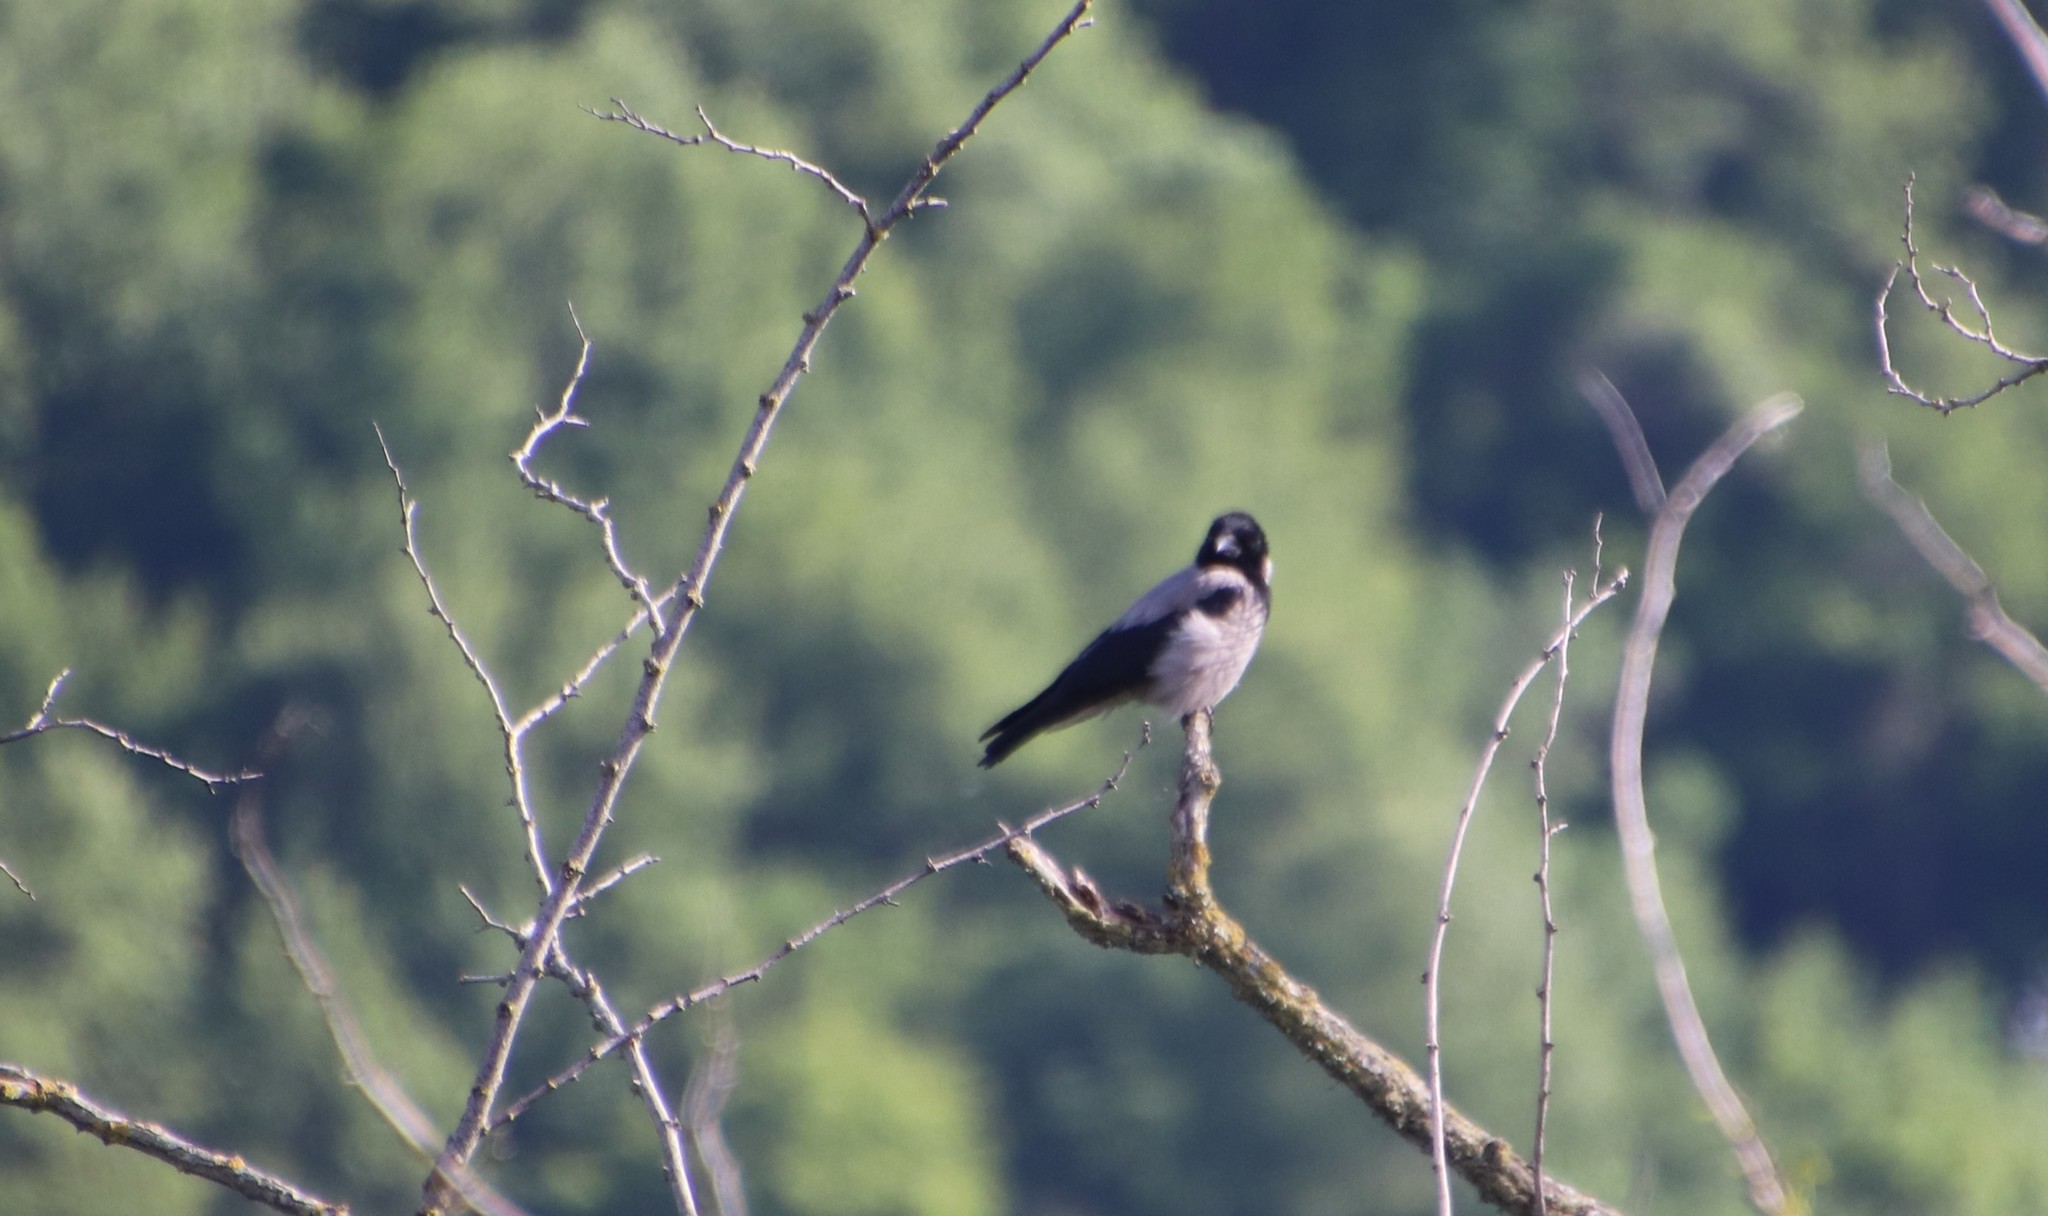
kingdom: Animalia
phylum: Chordata
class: Aves
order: Passeriformes
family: Corvidae
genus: Corvus
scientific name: Corvus cornix
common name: Hooded crow
